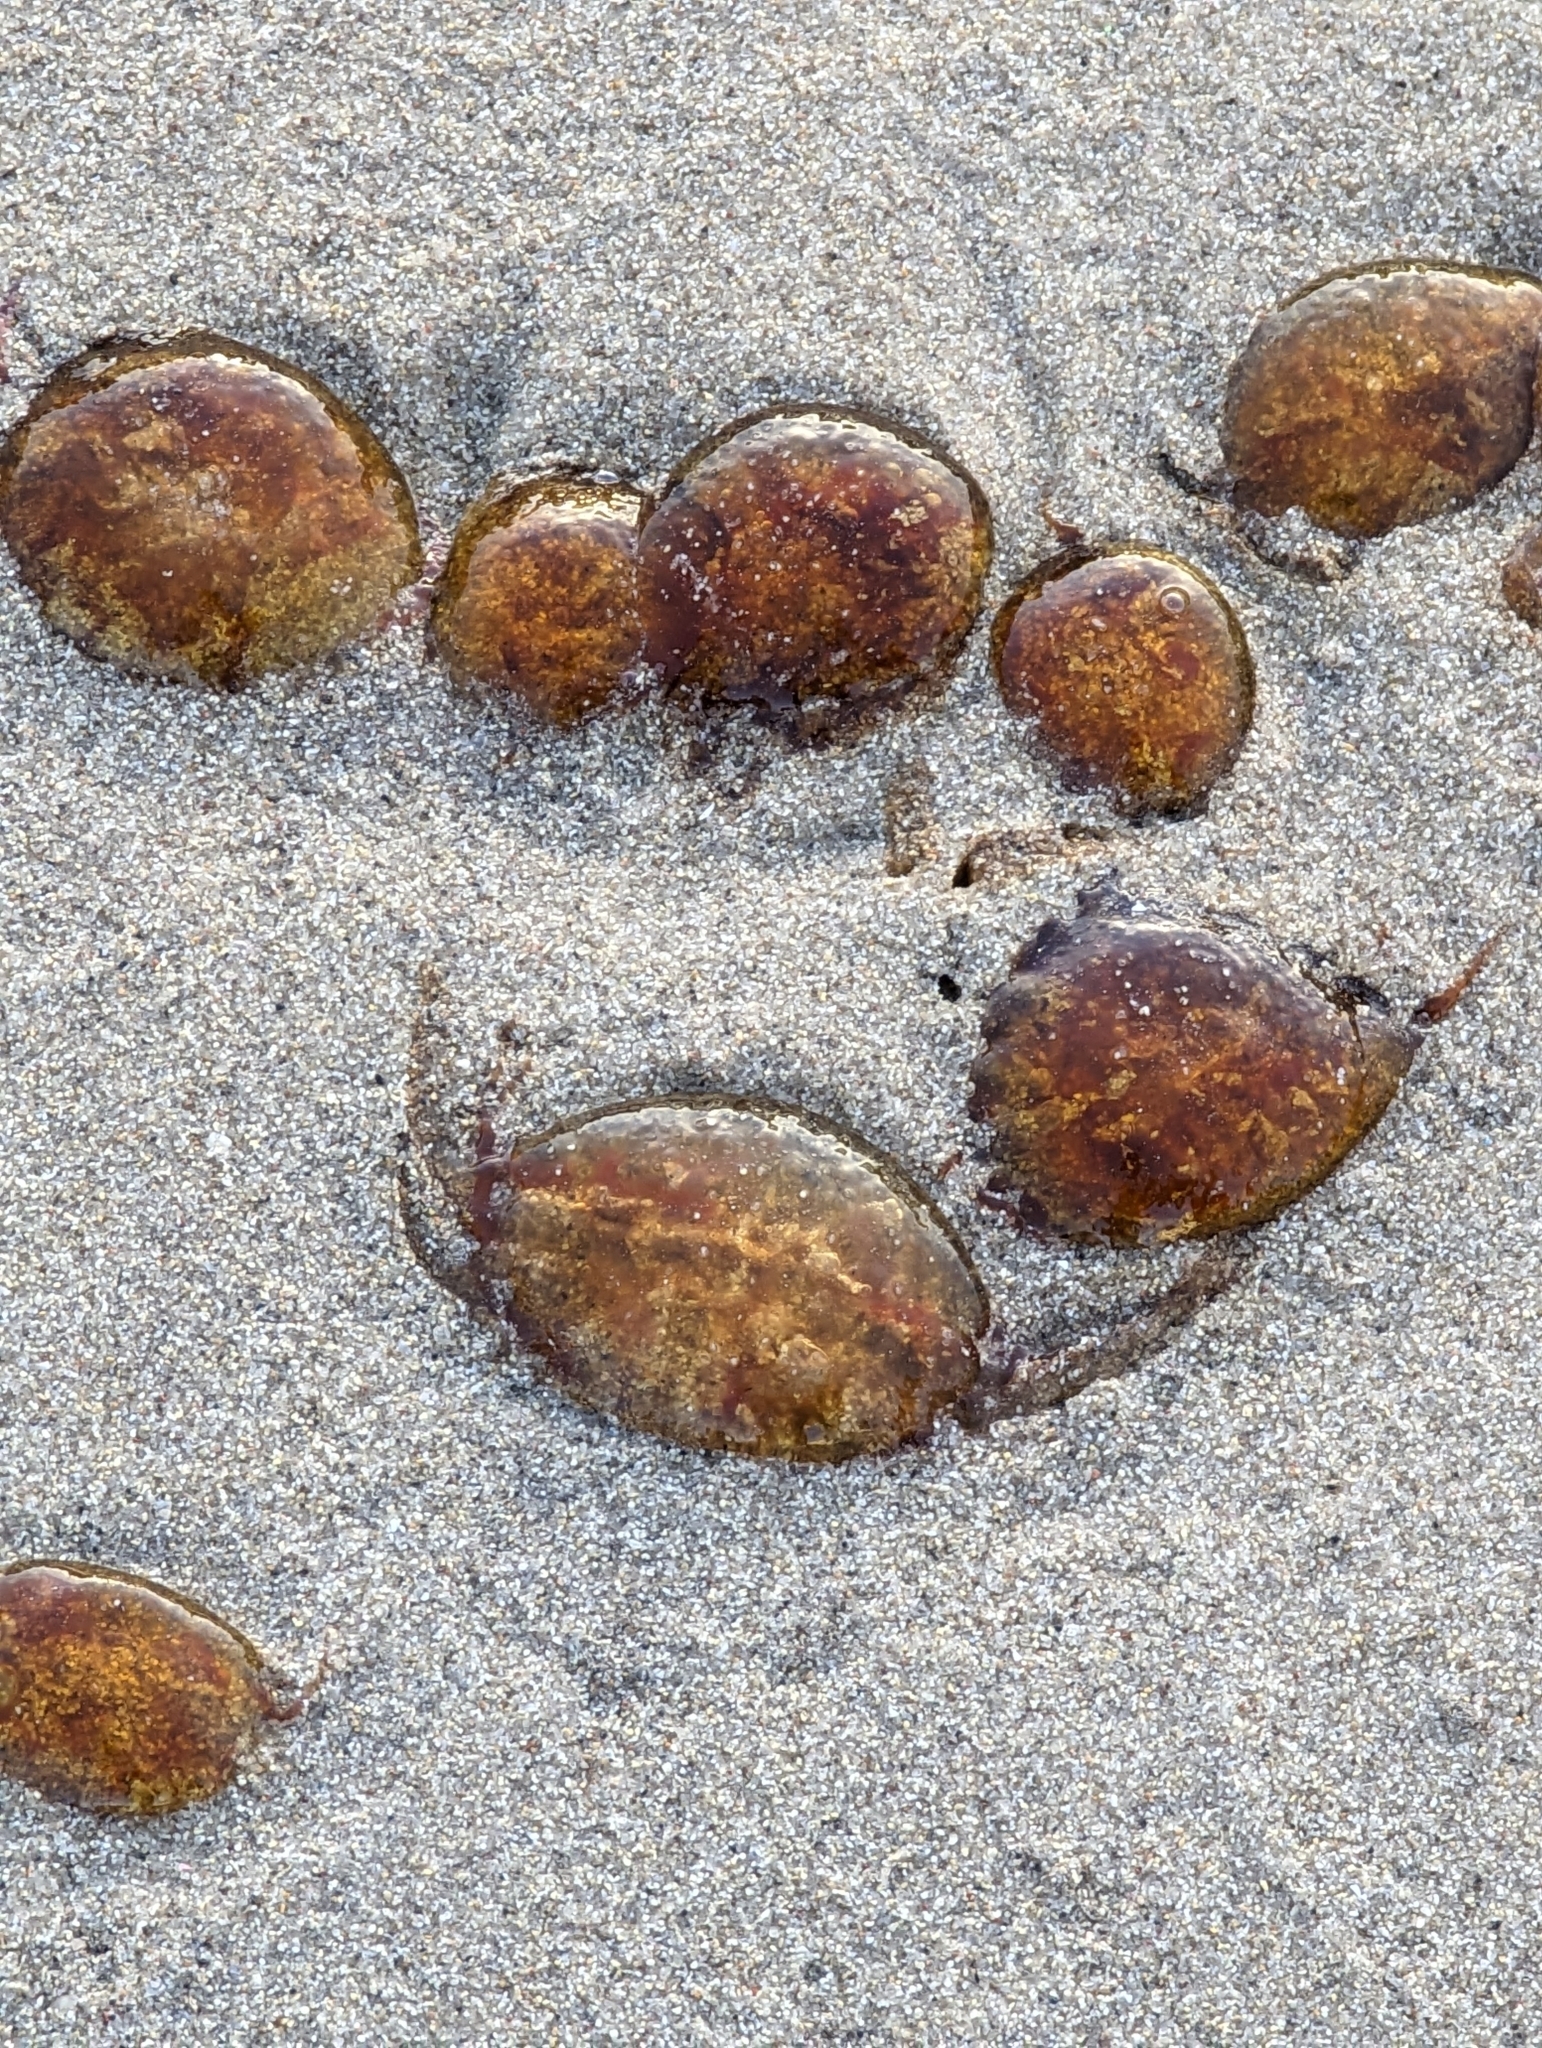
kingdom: Animalia
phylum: Cnidaria
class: Scyphozoa
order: Semaeostomeae
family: Pelagiidae
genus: Pelagia
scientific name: Pelagia noctiluca
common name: Mauve stinger
